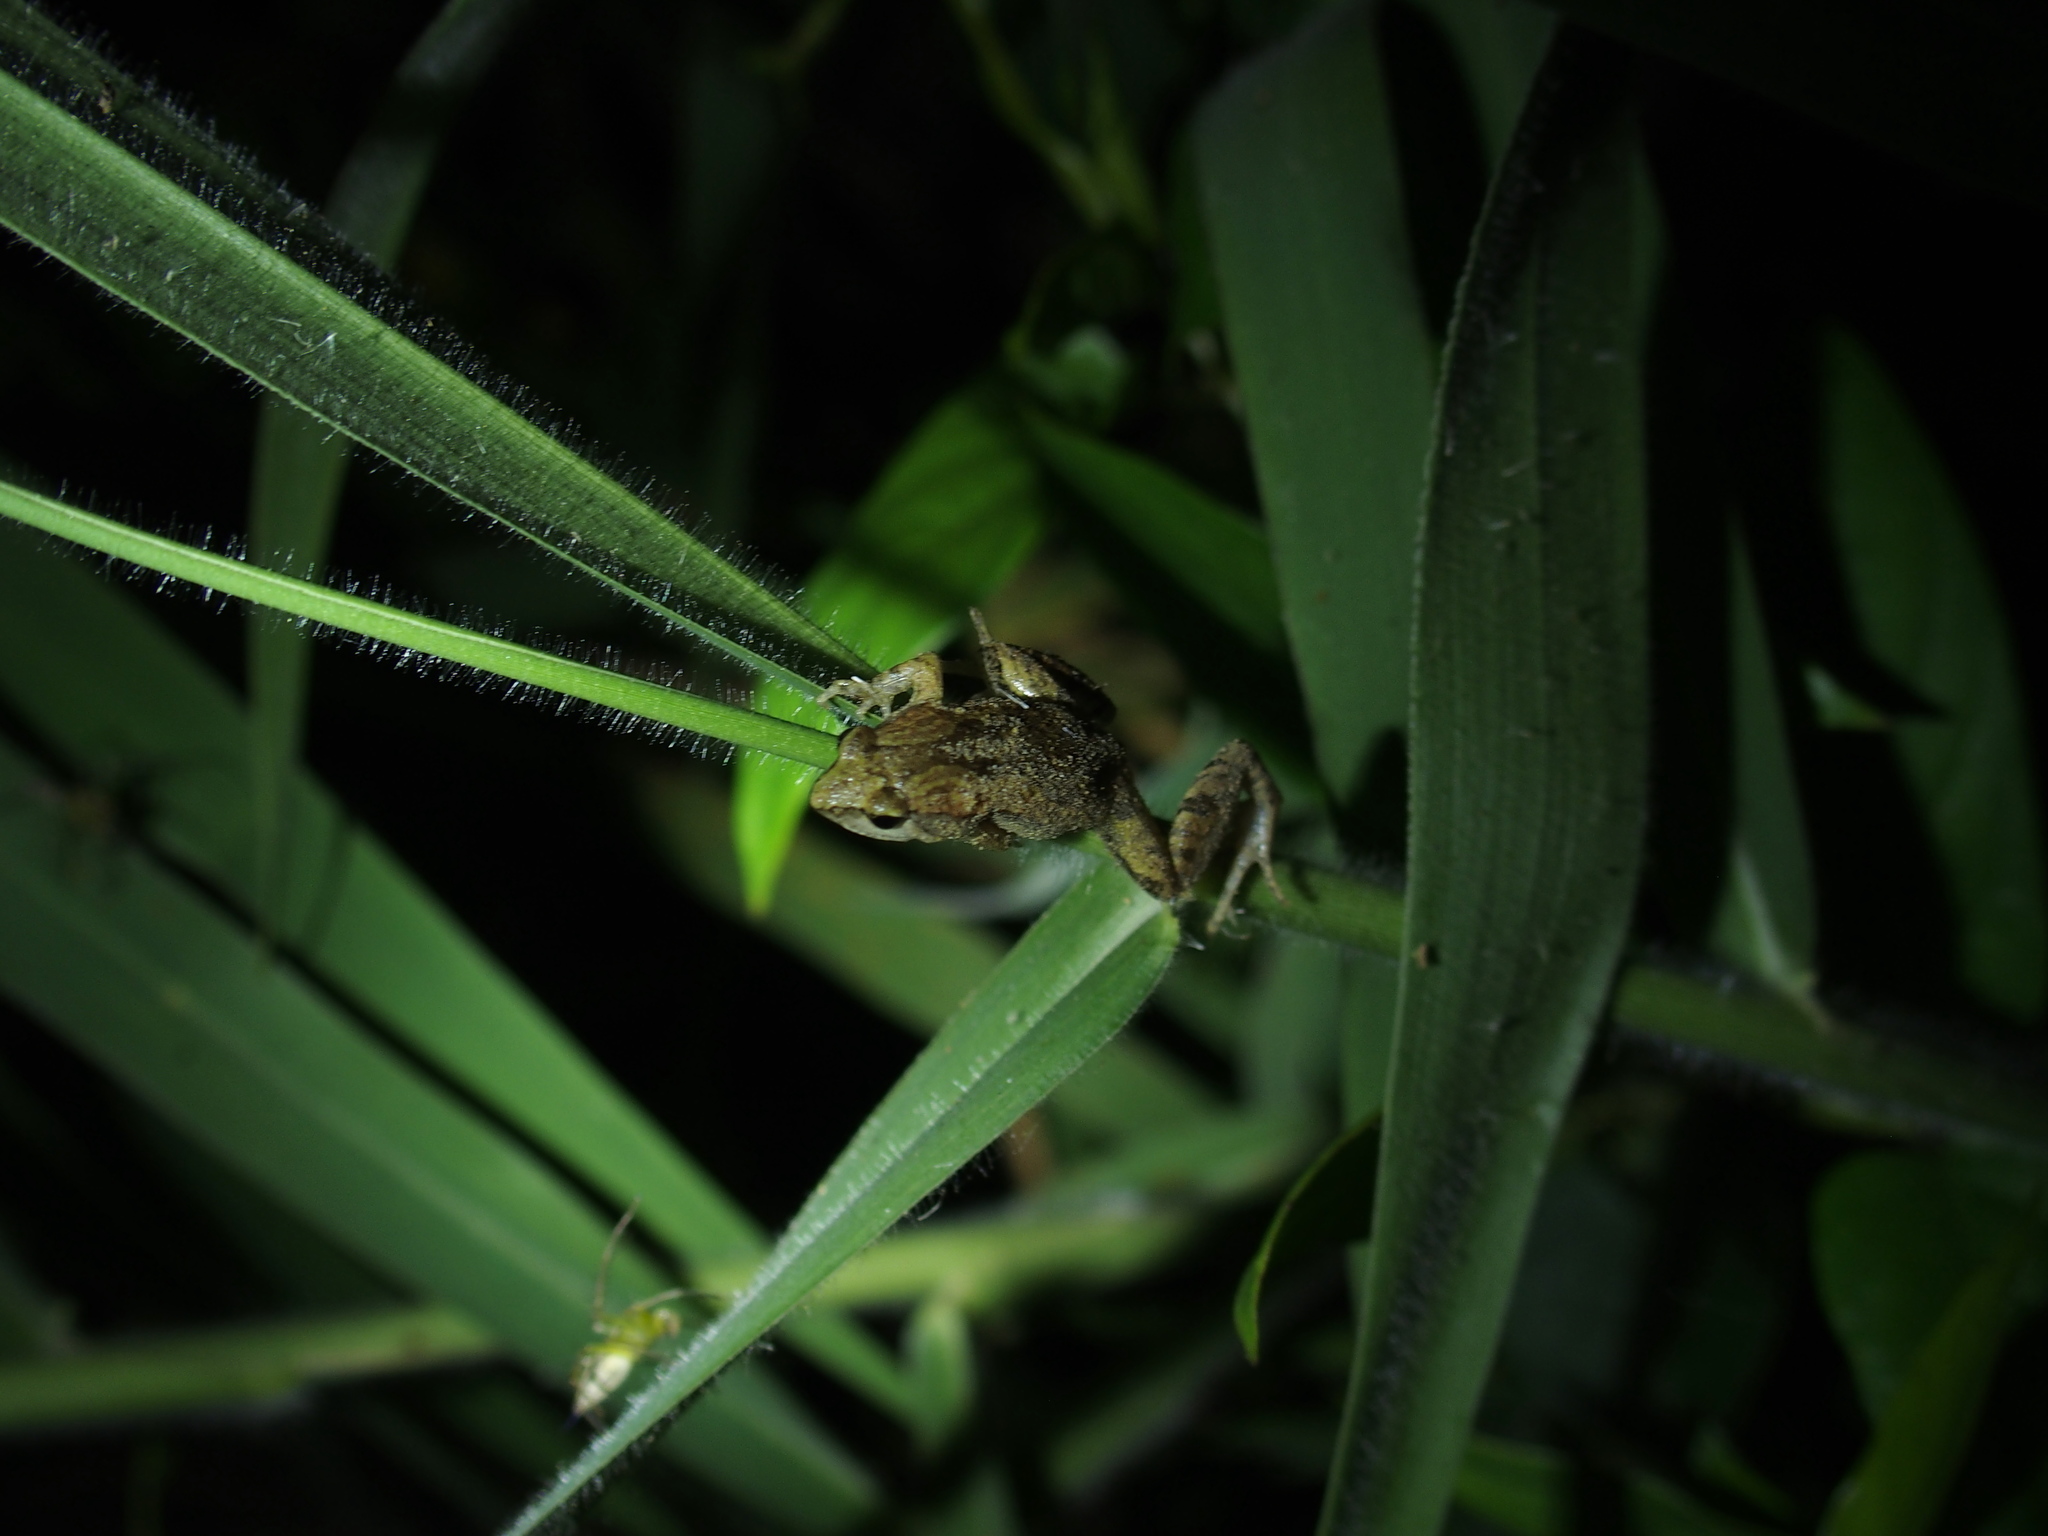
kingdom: Animalia
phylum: Chordata
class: Amphibia
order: Anura
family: Microhylidae
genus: Microhyla
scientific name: Microhyla fissipes
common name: Ornate narrow-mouthed frog
